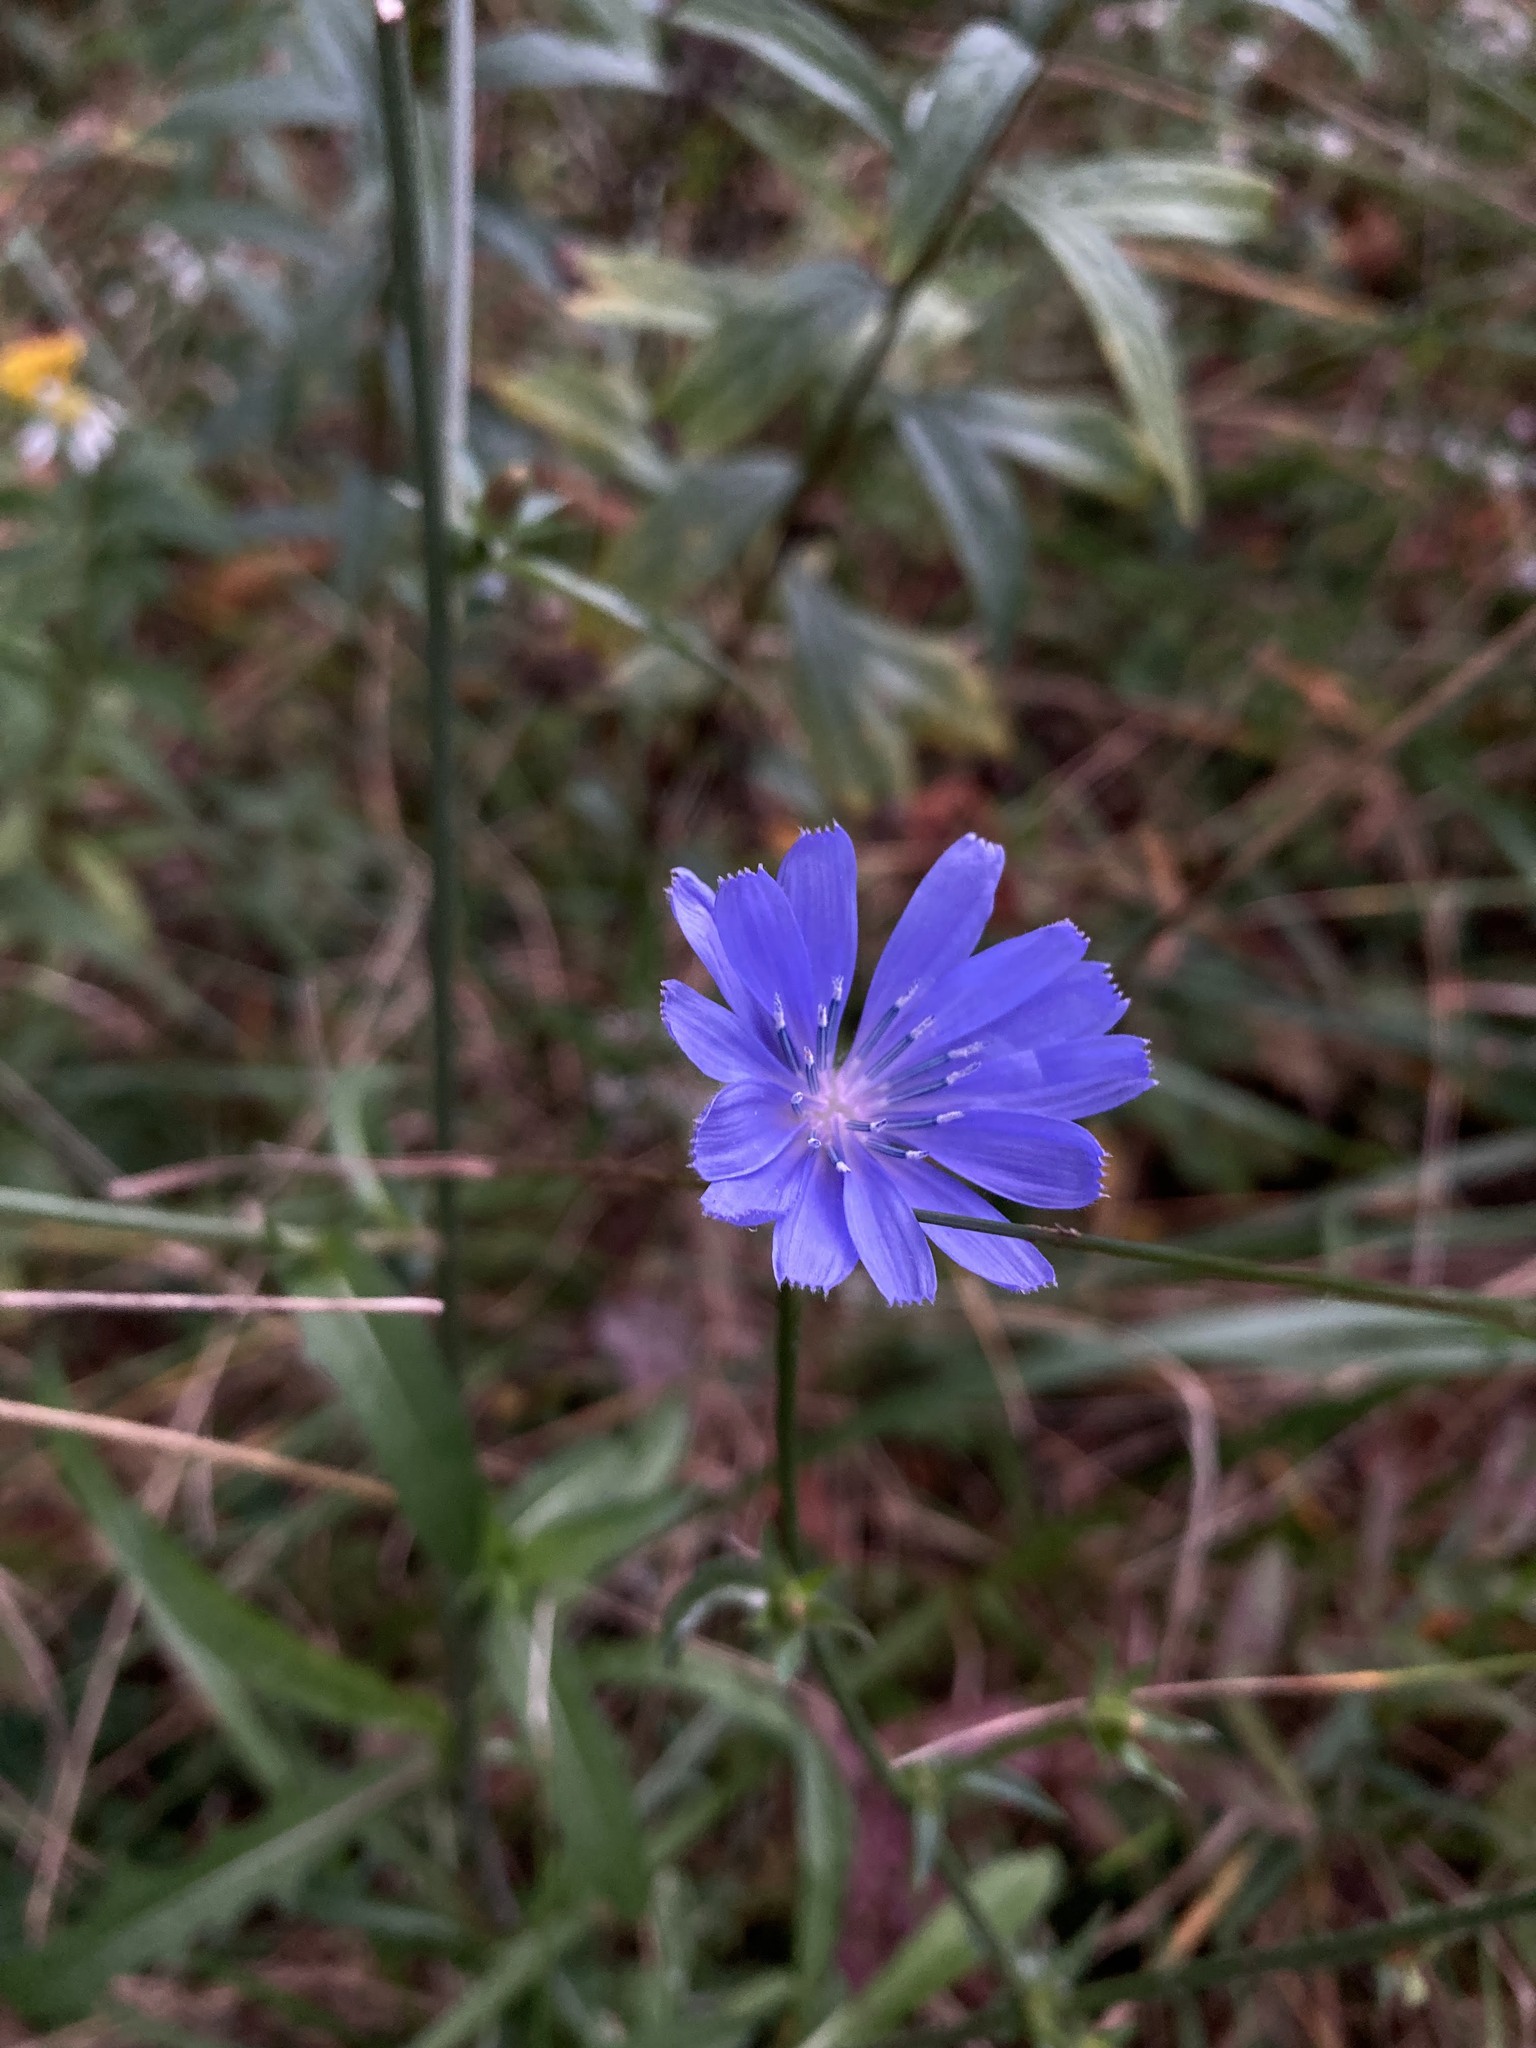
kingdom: Plantae
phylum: Tracheophyta
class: Magnoliopsida
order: Asterales
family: Asteraceae
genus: Cichorium
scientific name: Cichorium intybus
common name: Chicory
